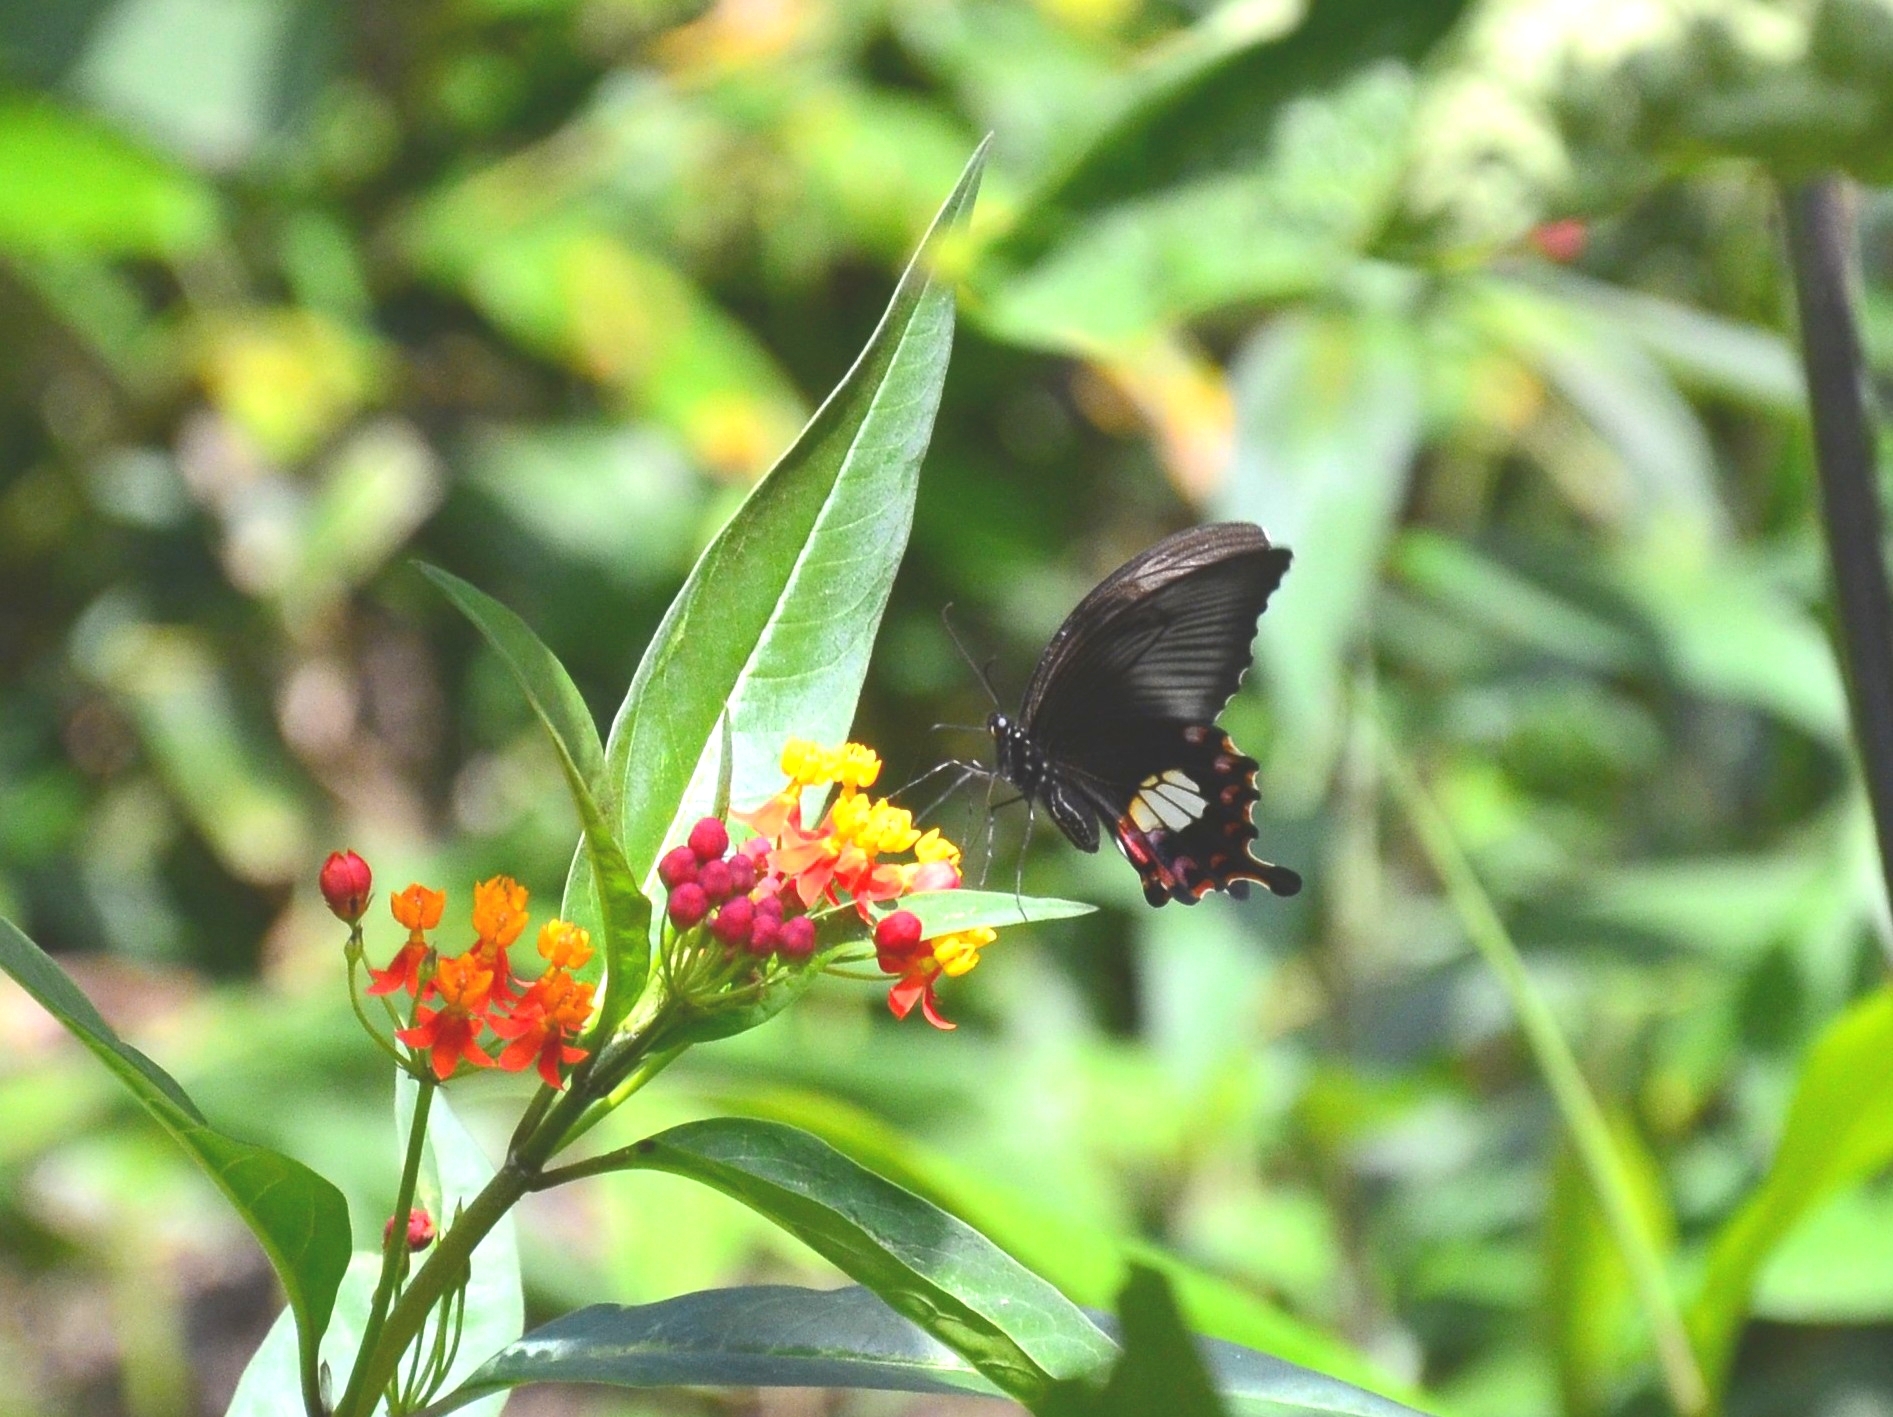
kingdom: Animalia
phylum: Arthropoda
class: Insecta
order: Lepidoptera
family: Papilionidae
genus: Papilio
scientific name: Papilio polytes
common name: Common mormon
